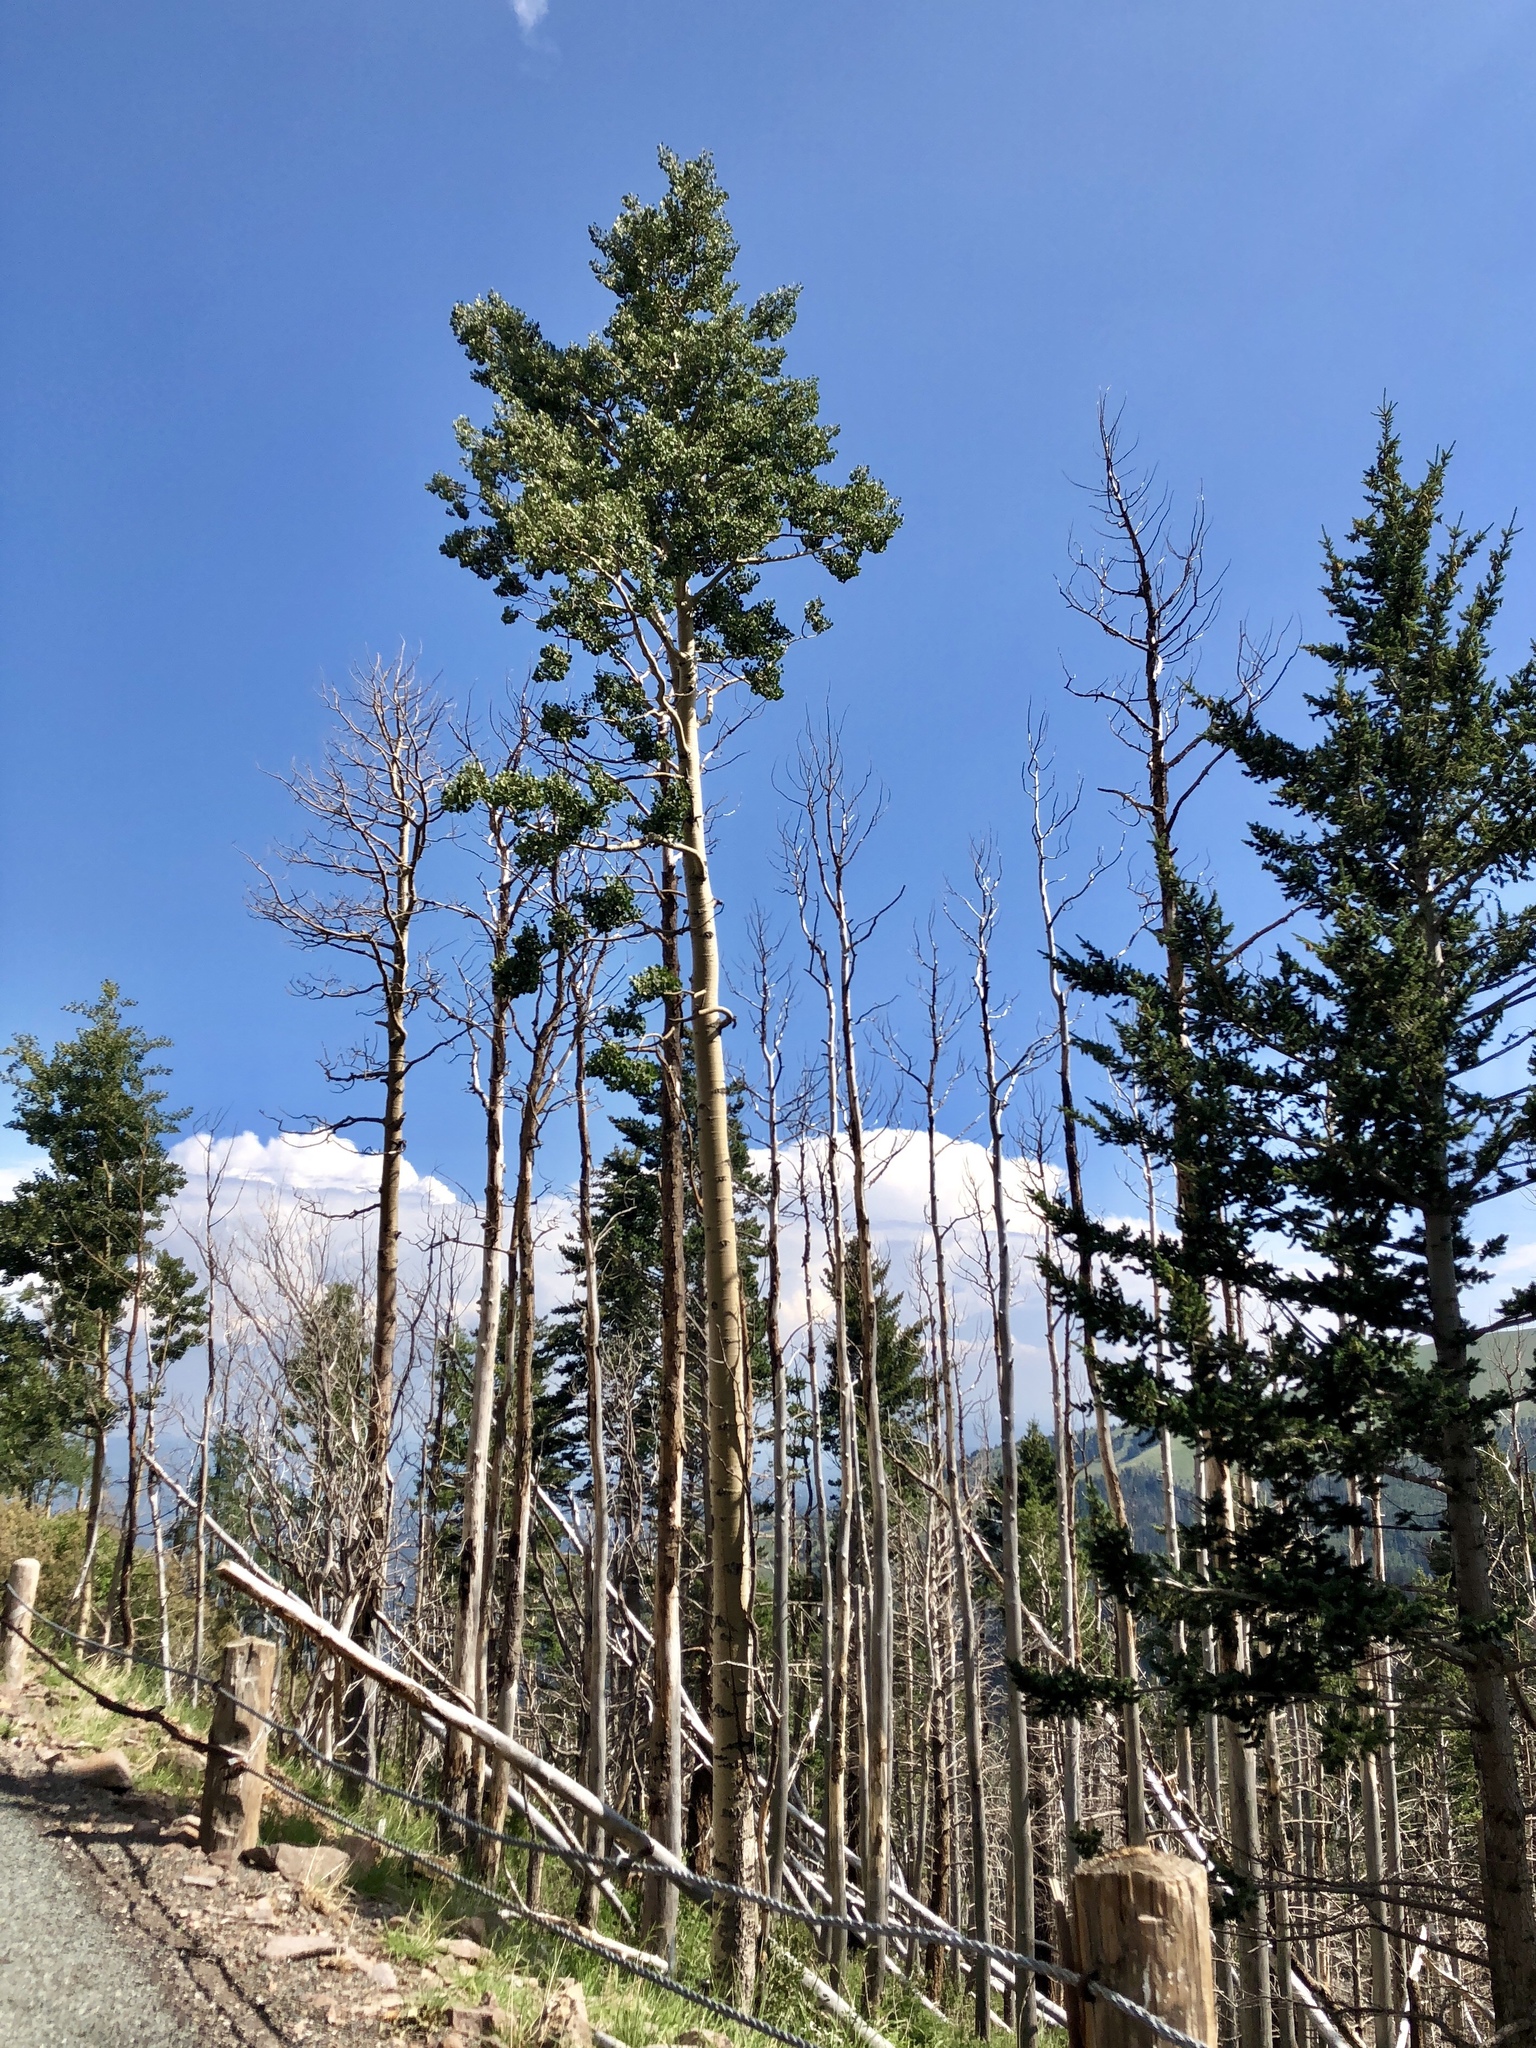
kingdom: Plantae
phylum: Tracheophyta
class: Magnoliopsida
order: Malpighiales
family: Salicaceae
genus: Populus
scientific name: Populus tremuloides
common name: Quaking aspen
